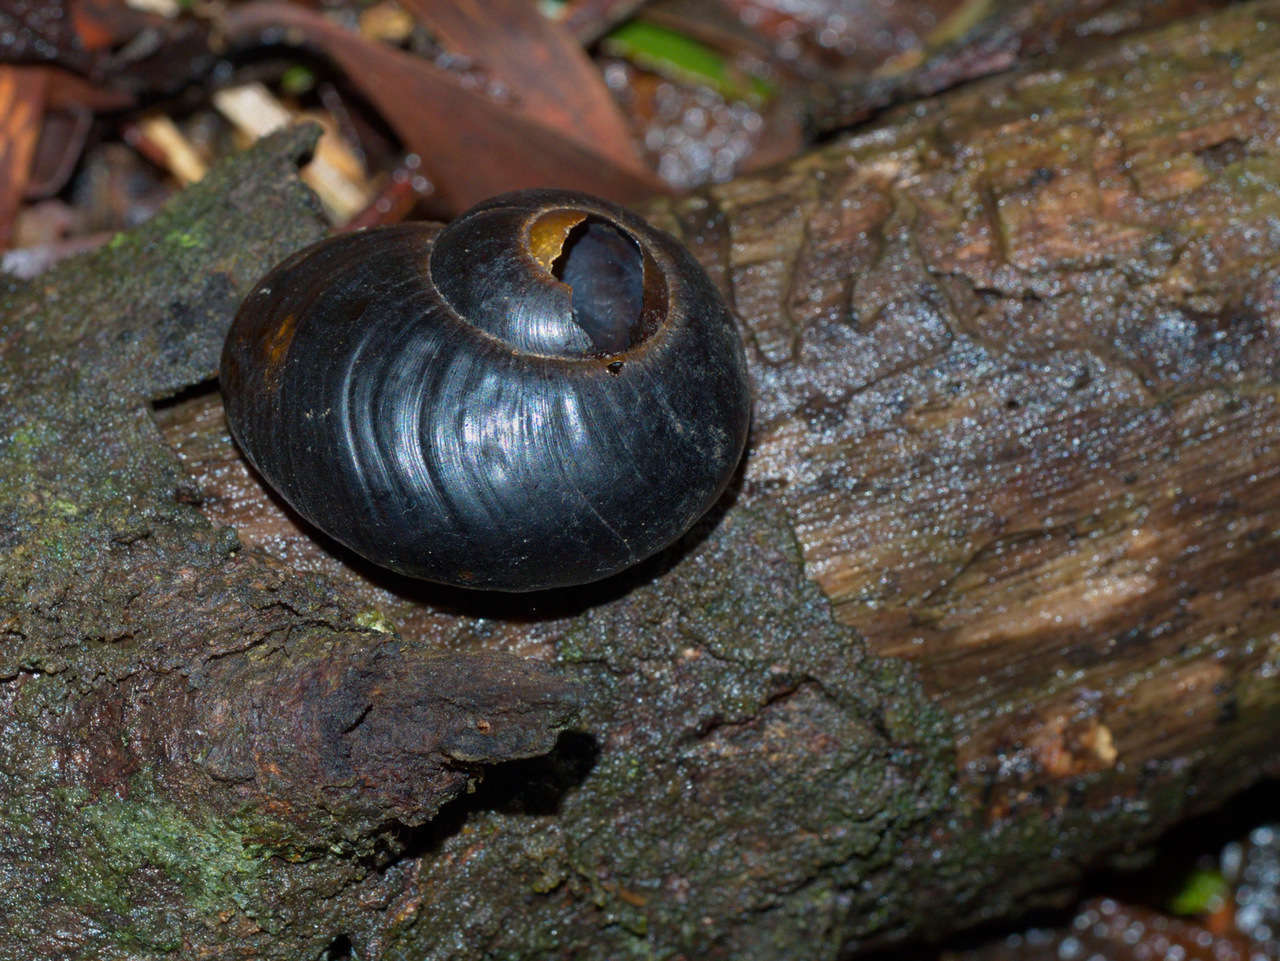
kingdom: Animalia
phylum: Mollusca
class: Gastropoda
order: Stylommatophora
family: Rhytididae
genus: Victaphanta
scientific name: Victaphanta compacta
